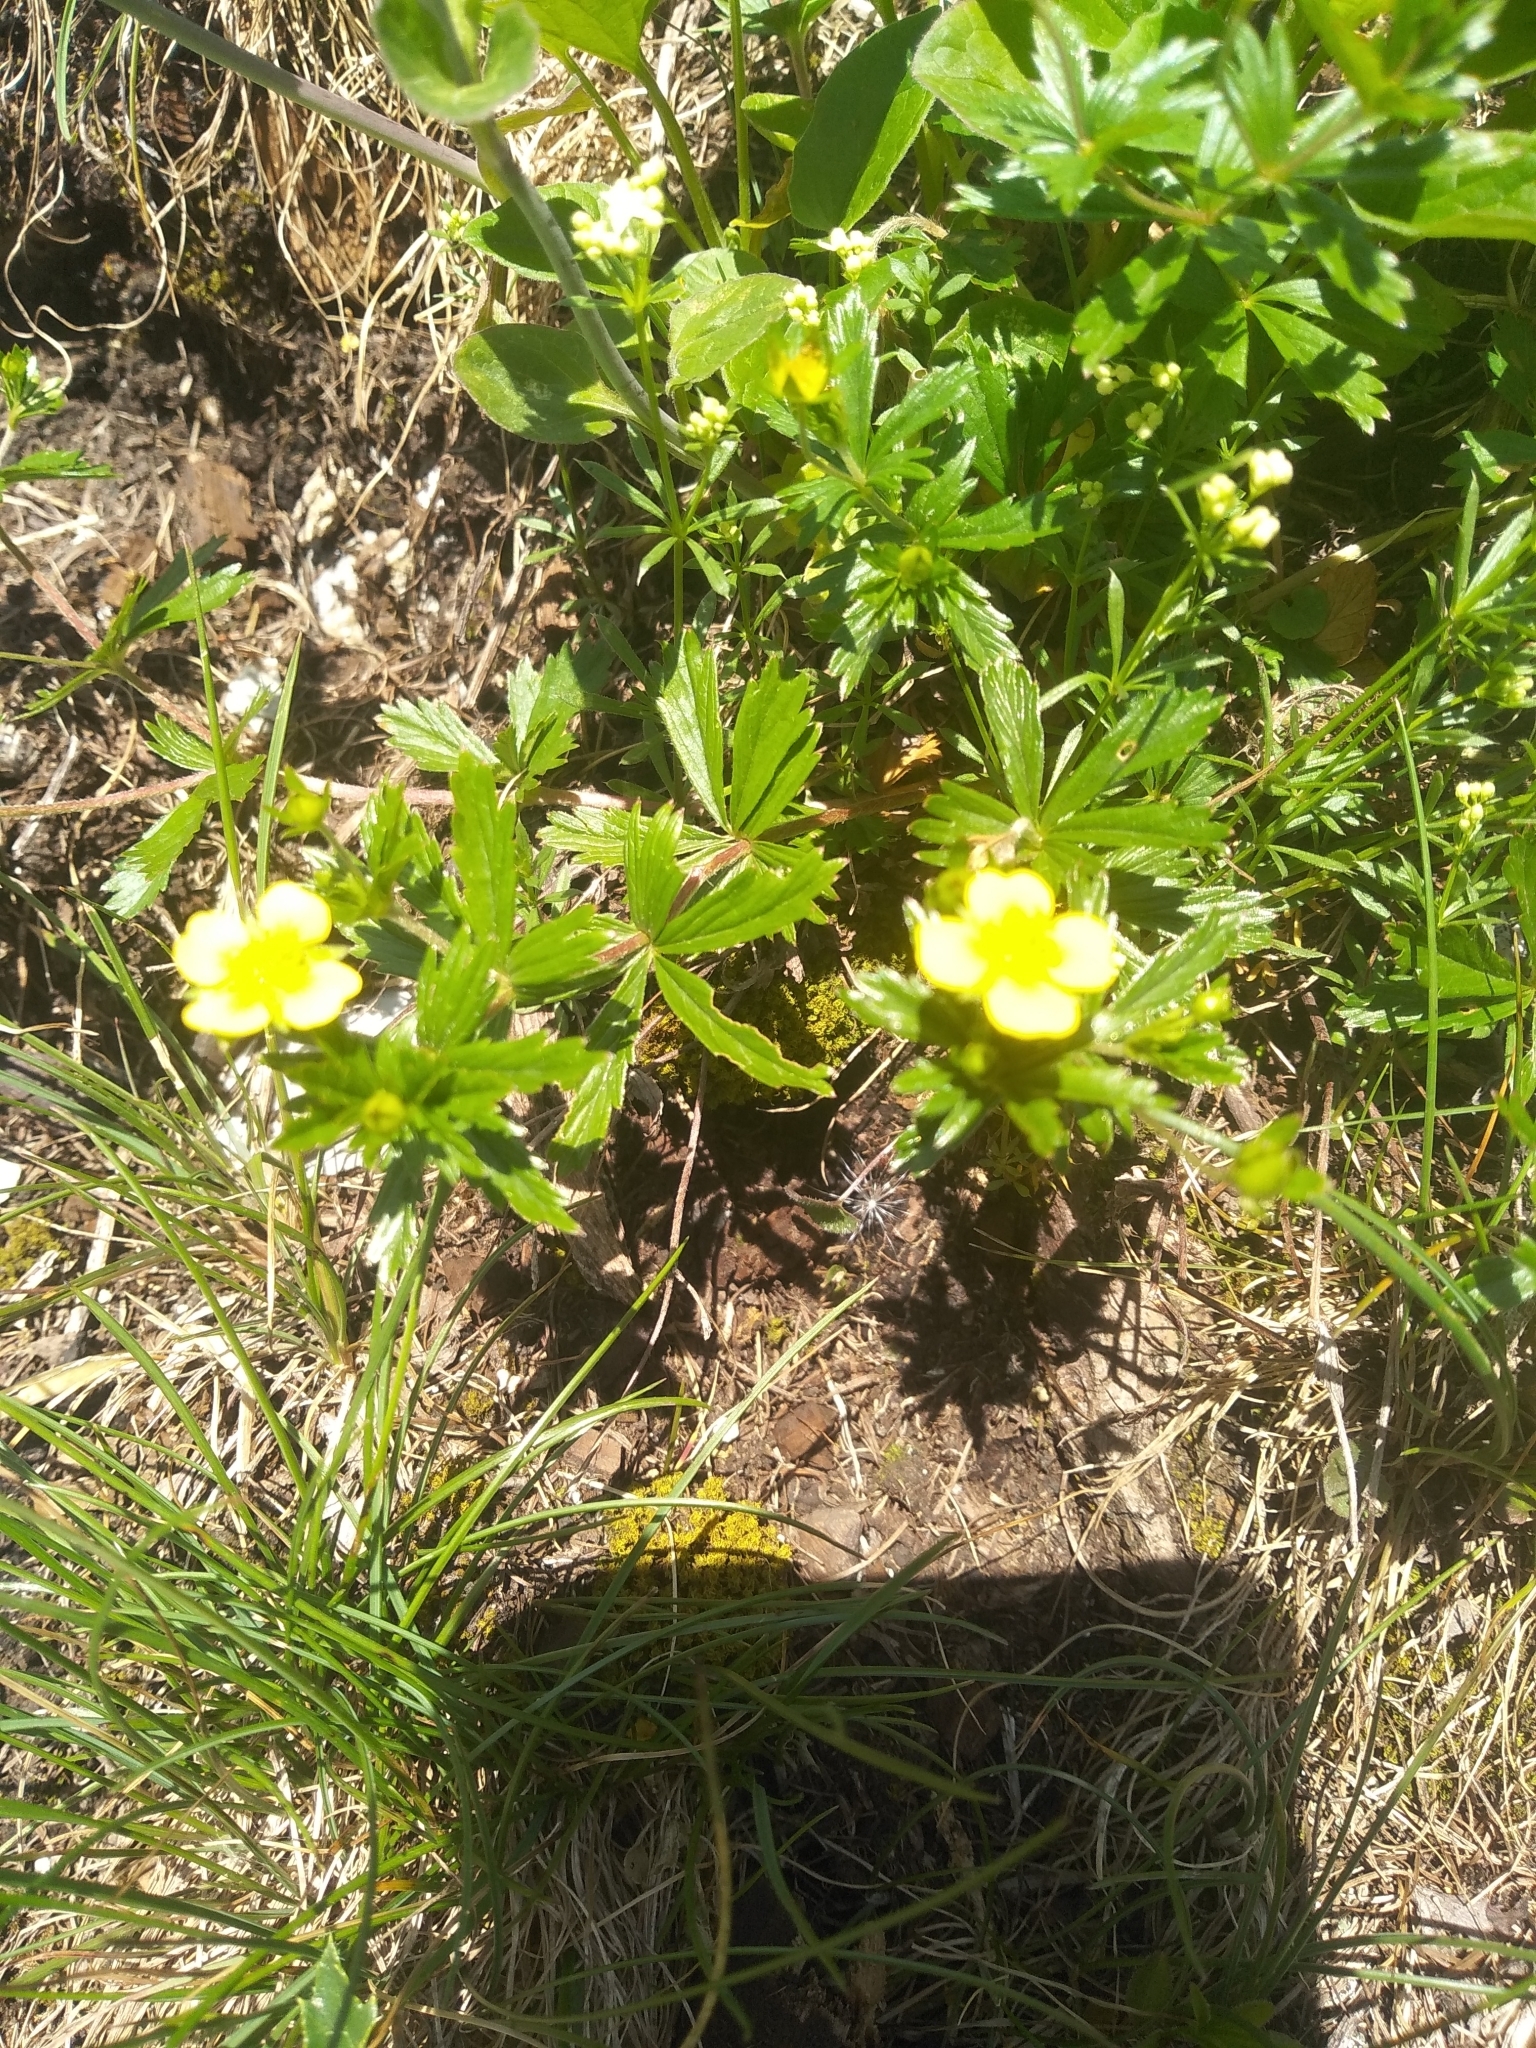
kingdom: Plantae
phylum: Tracheophyta
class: Magnoliopsida
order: Rosales
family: Rosaceae
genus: Potentilla
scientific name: Potentilla erecta
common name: Tormentil
